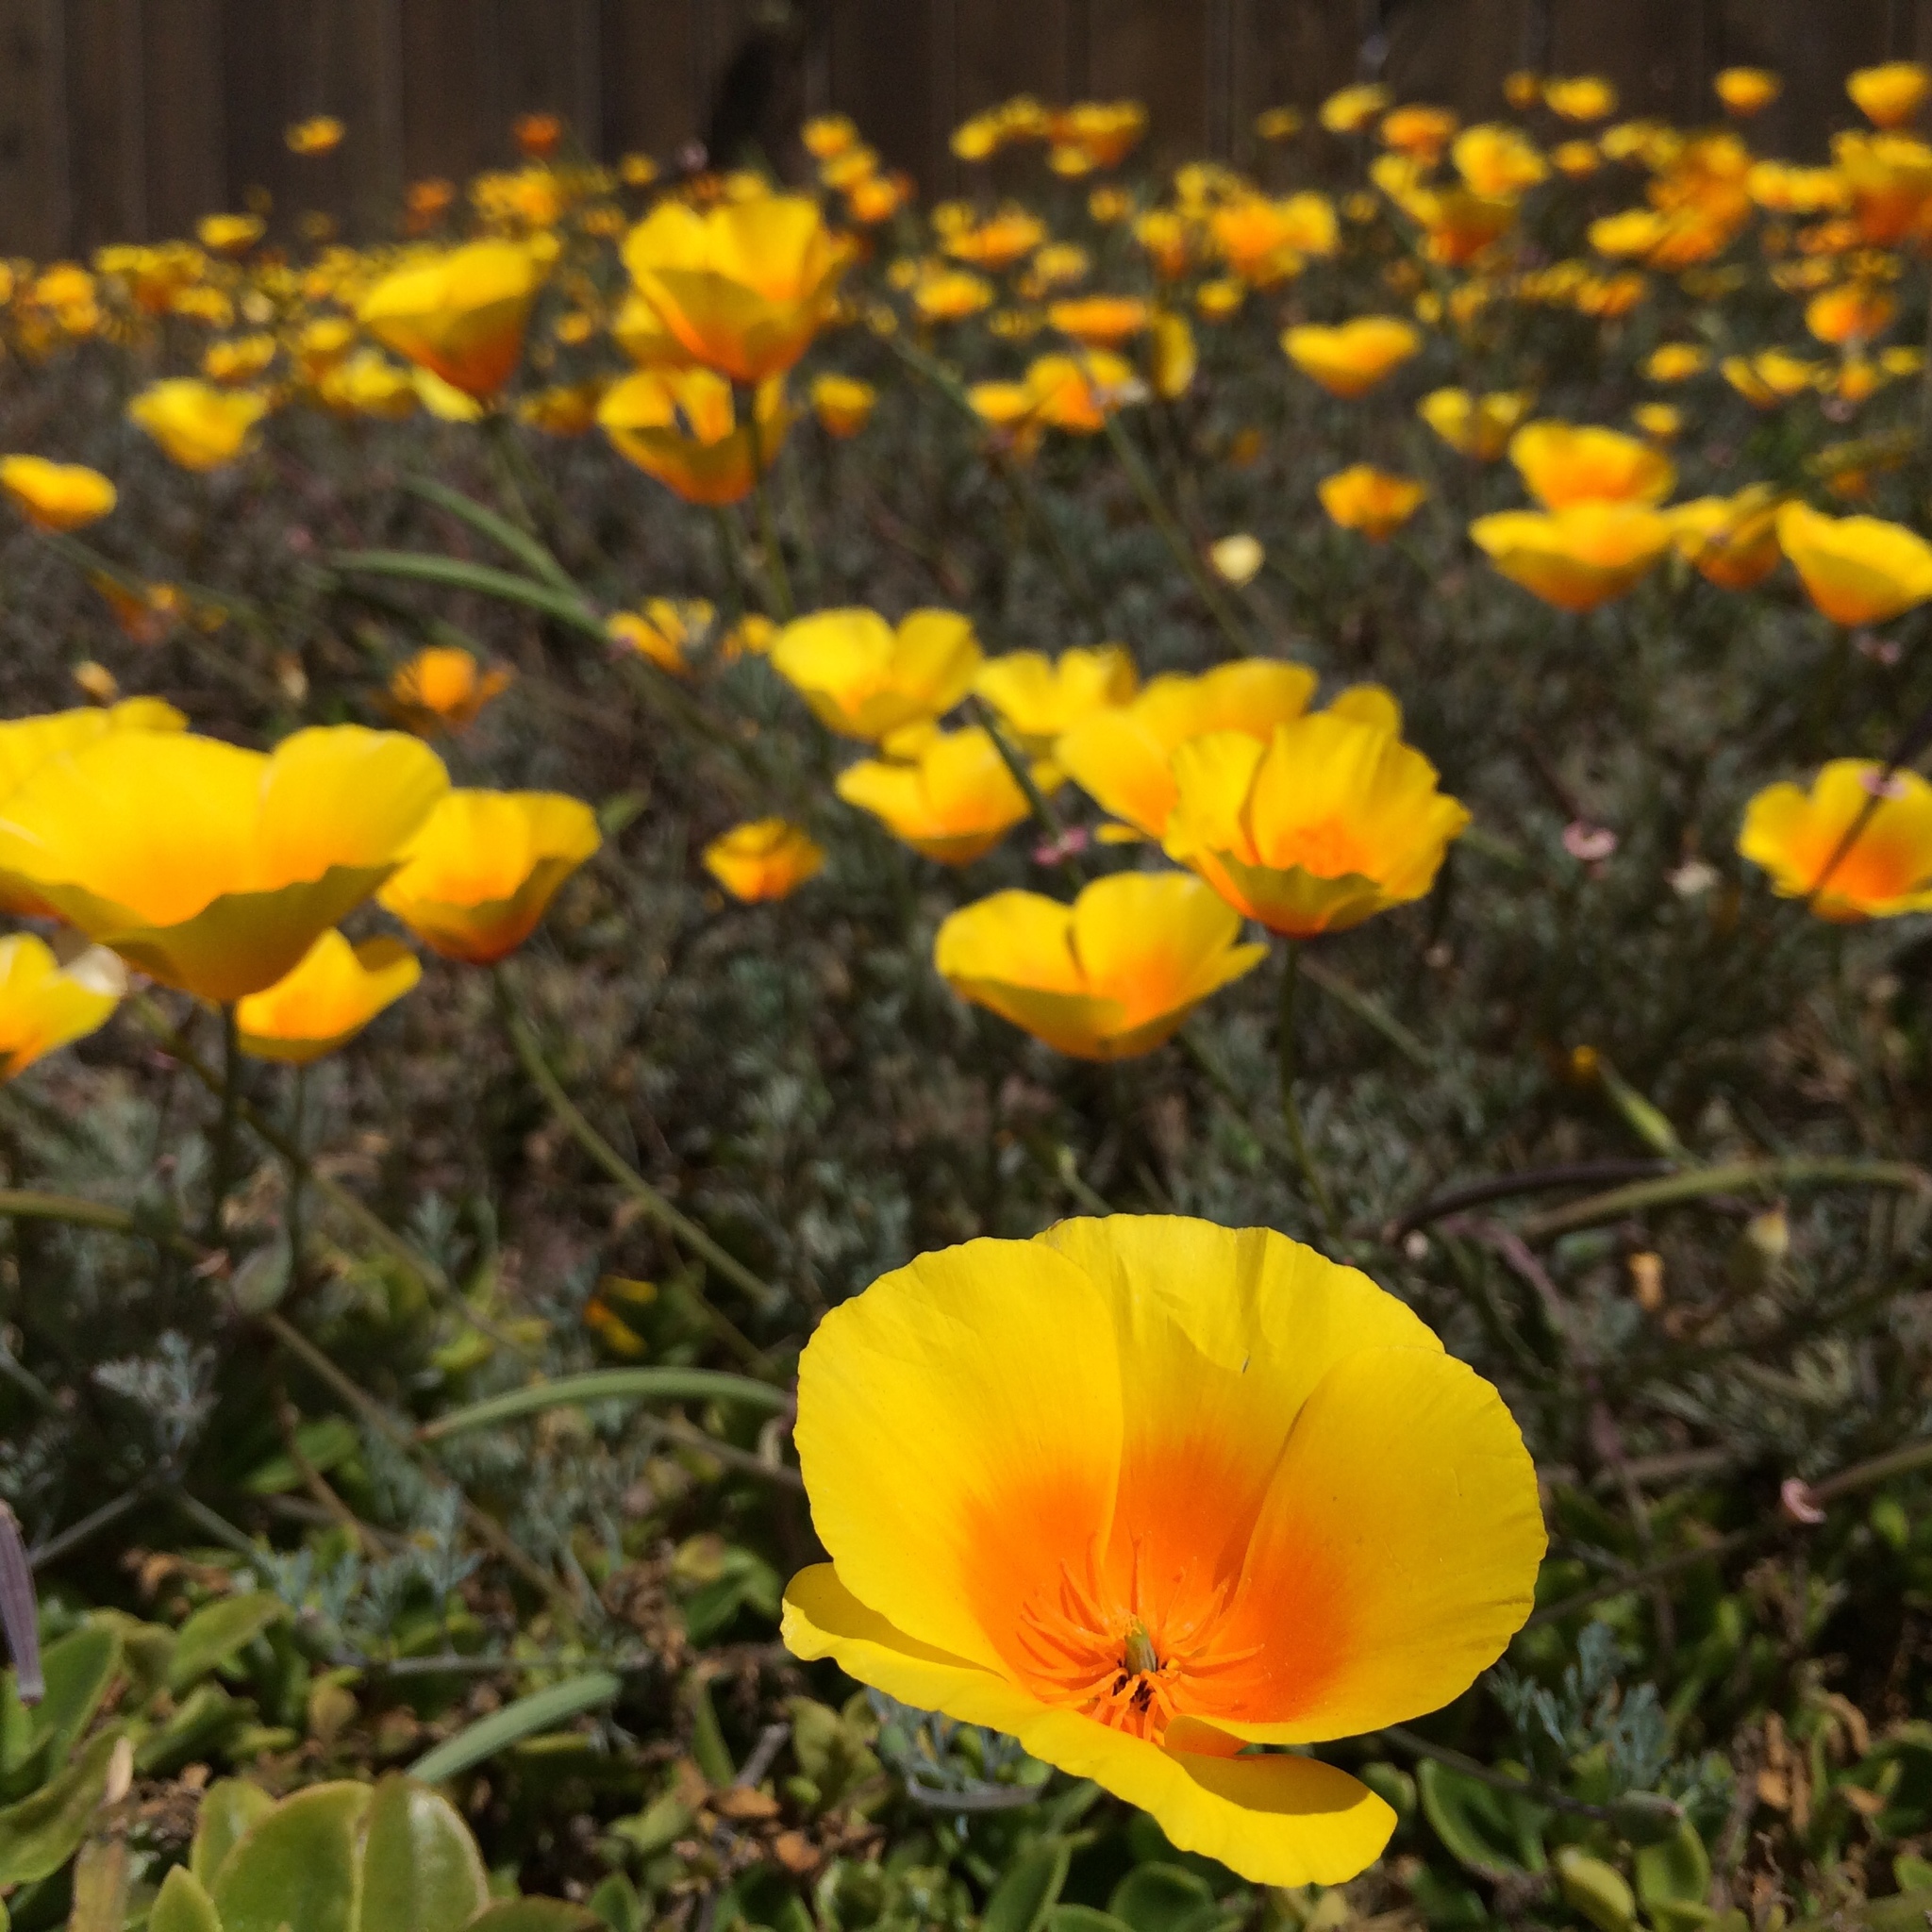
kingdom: Plantae
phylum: Tracheophyta
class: Magnoliopsida
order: Ranunculales
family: Papaveraceae
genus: Eschscholzia
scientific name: Eschscholzia californica
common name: California poppy
